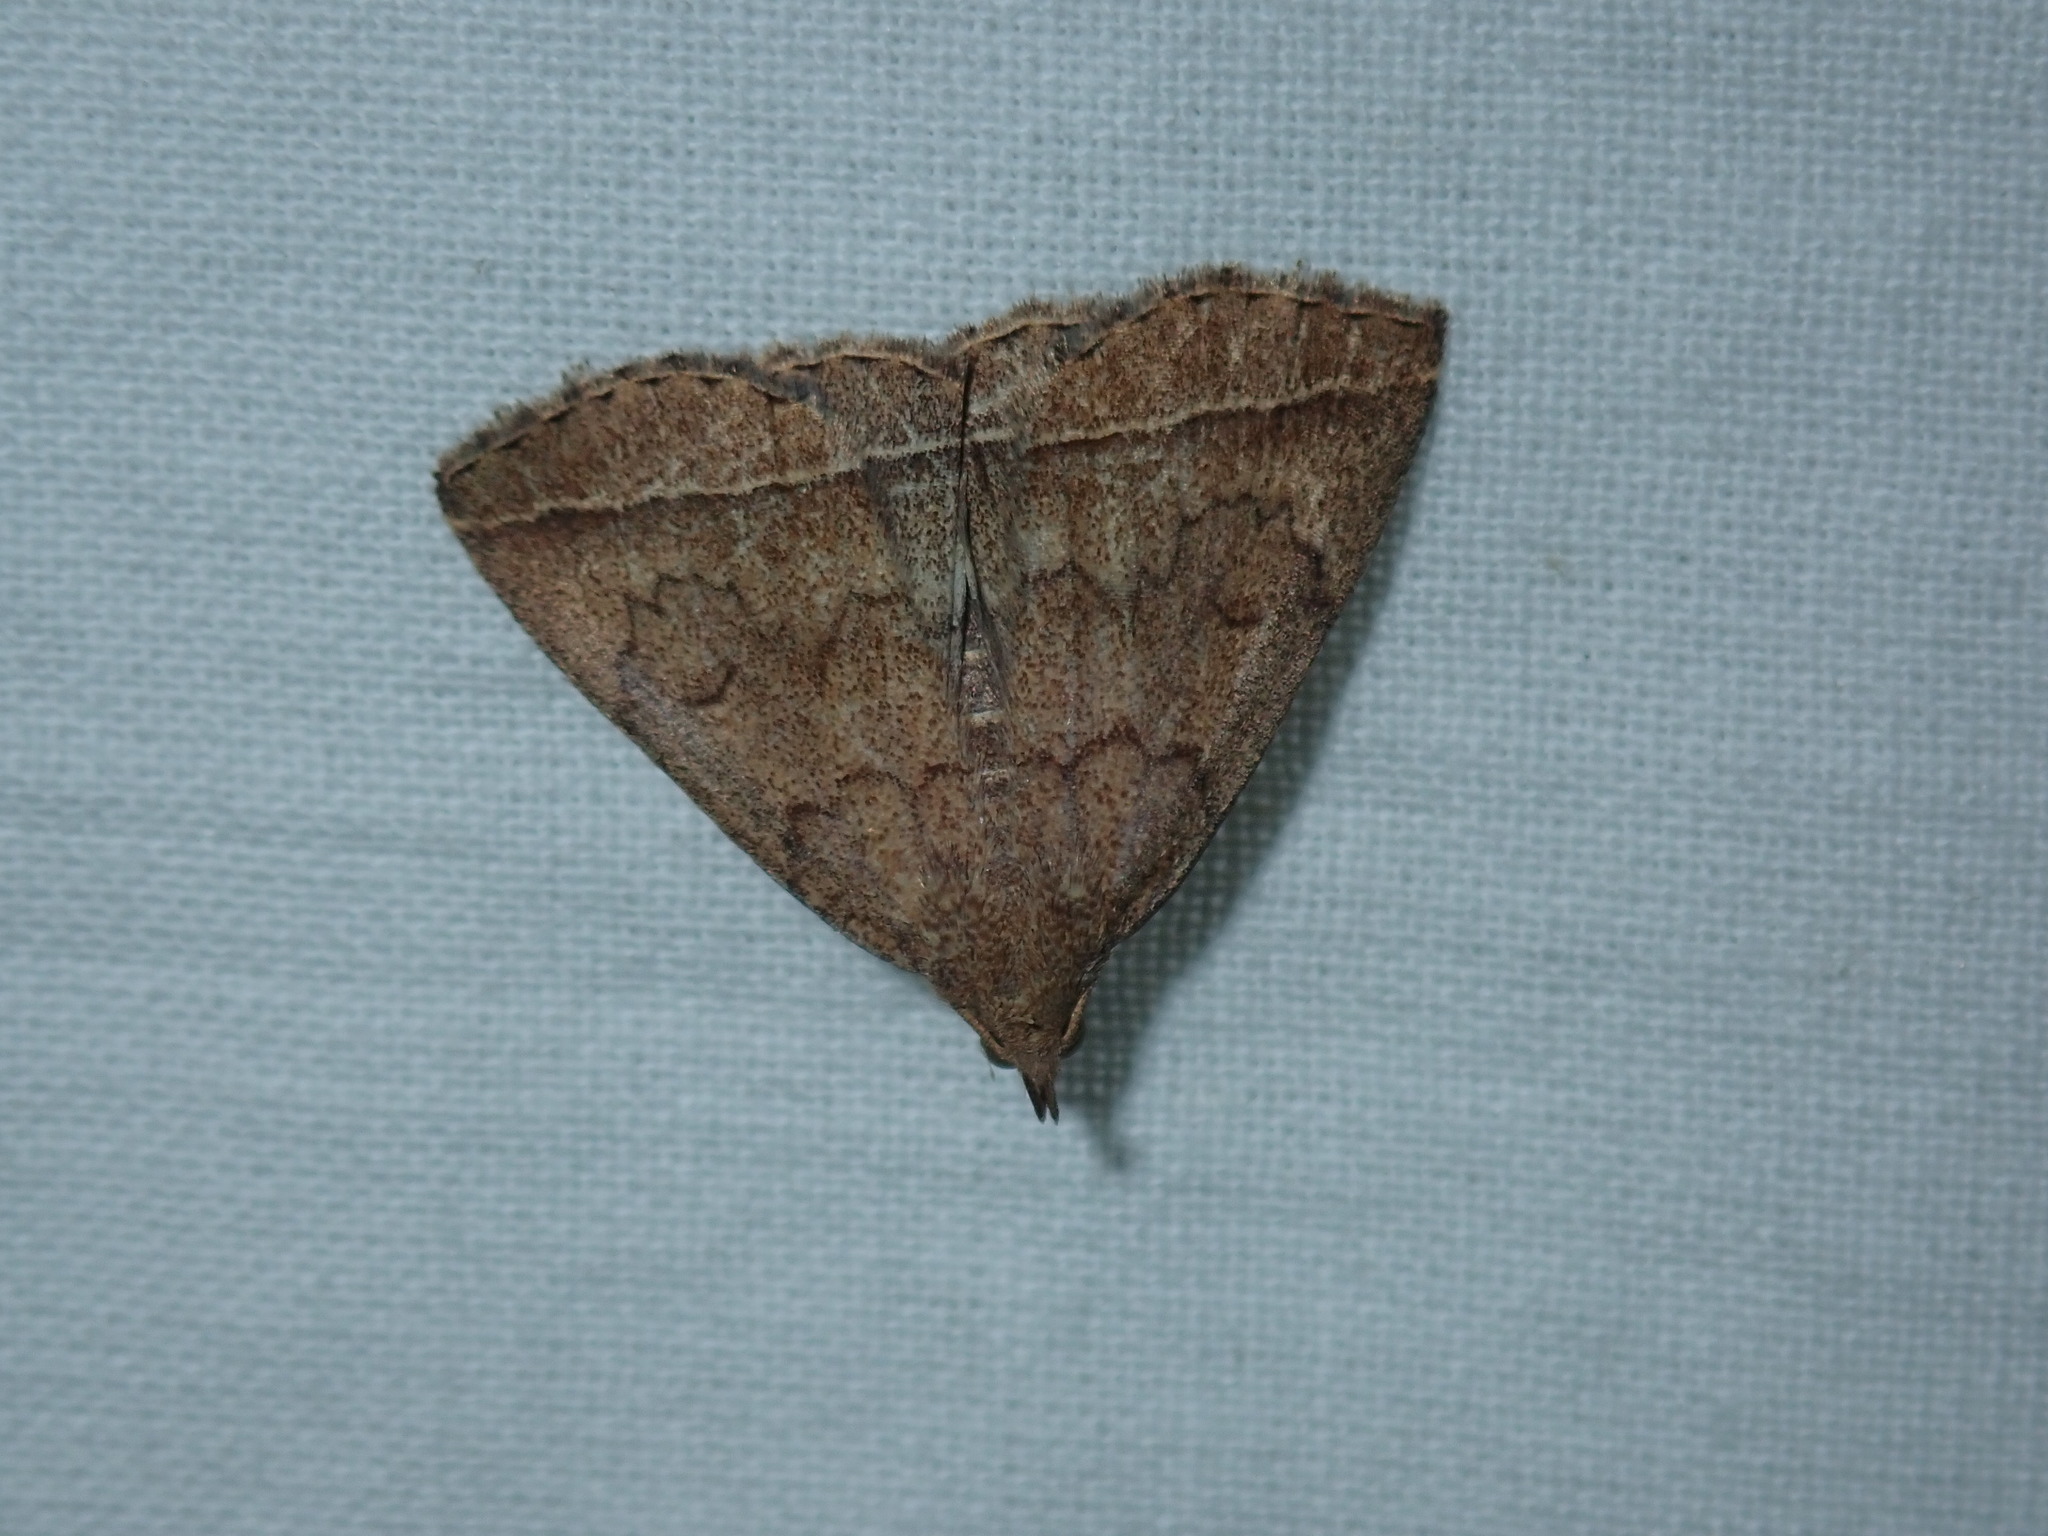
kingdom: Animalia
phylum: Arthropoda
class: Insecta
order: Lepidoptera
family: Erebidae
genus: Zanclognatha
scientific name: Zanclognatha jacchusalis
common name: Yellowish zanclognatha
